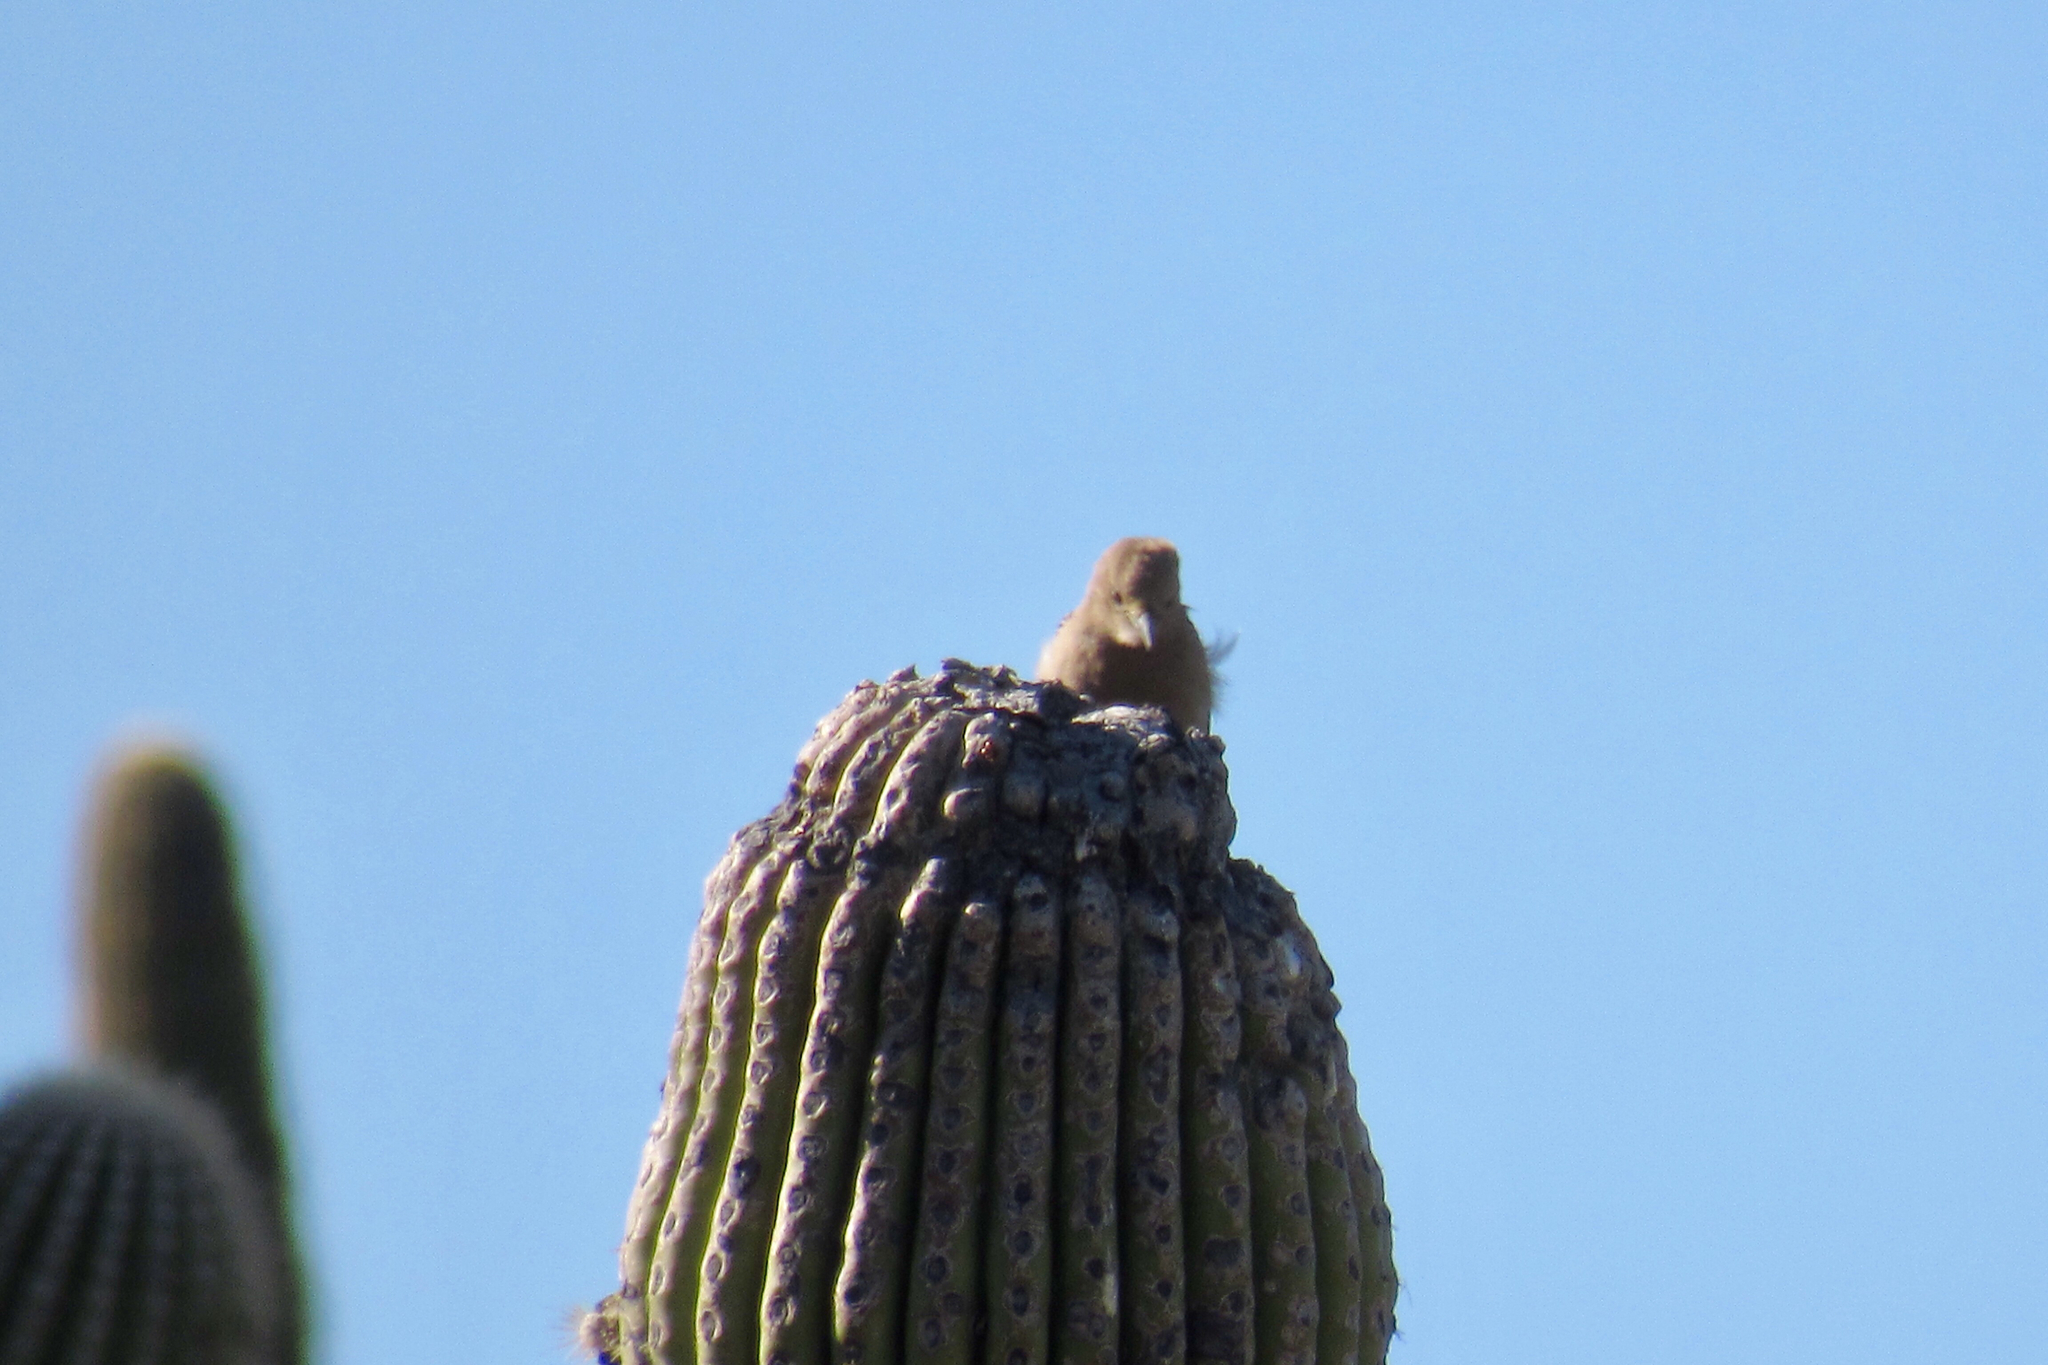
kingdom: Animalia
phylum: Chordata
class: Aves
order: Piciformes
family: Picidae
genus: Melanerpes
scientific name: Melanerpes uropygialis
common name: Gila woodpecker
